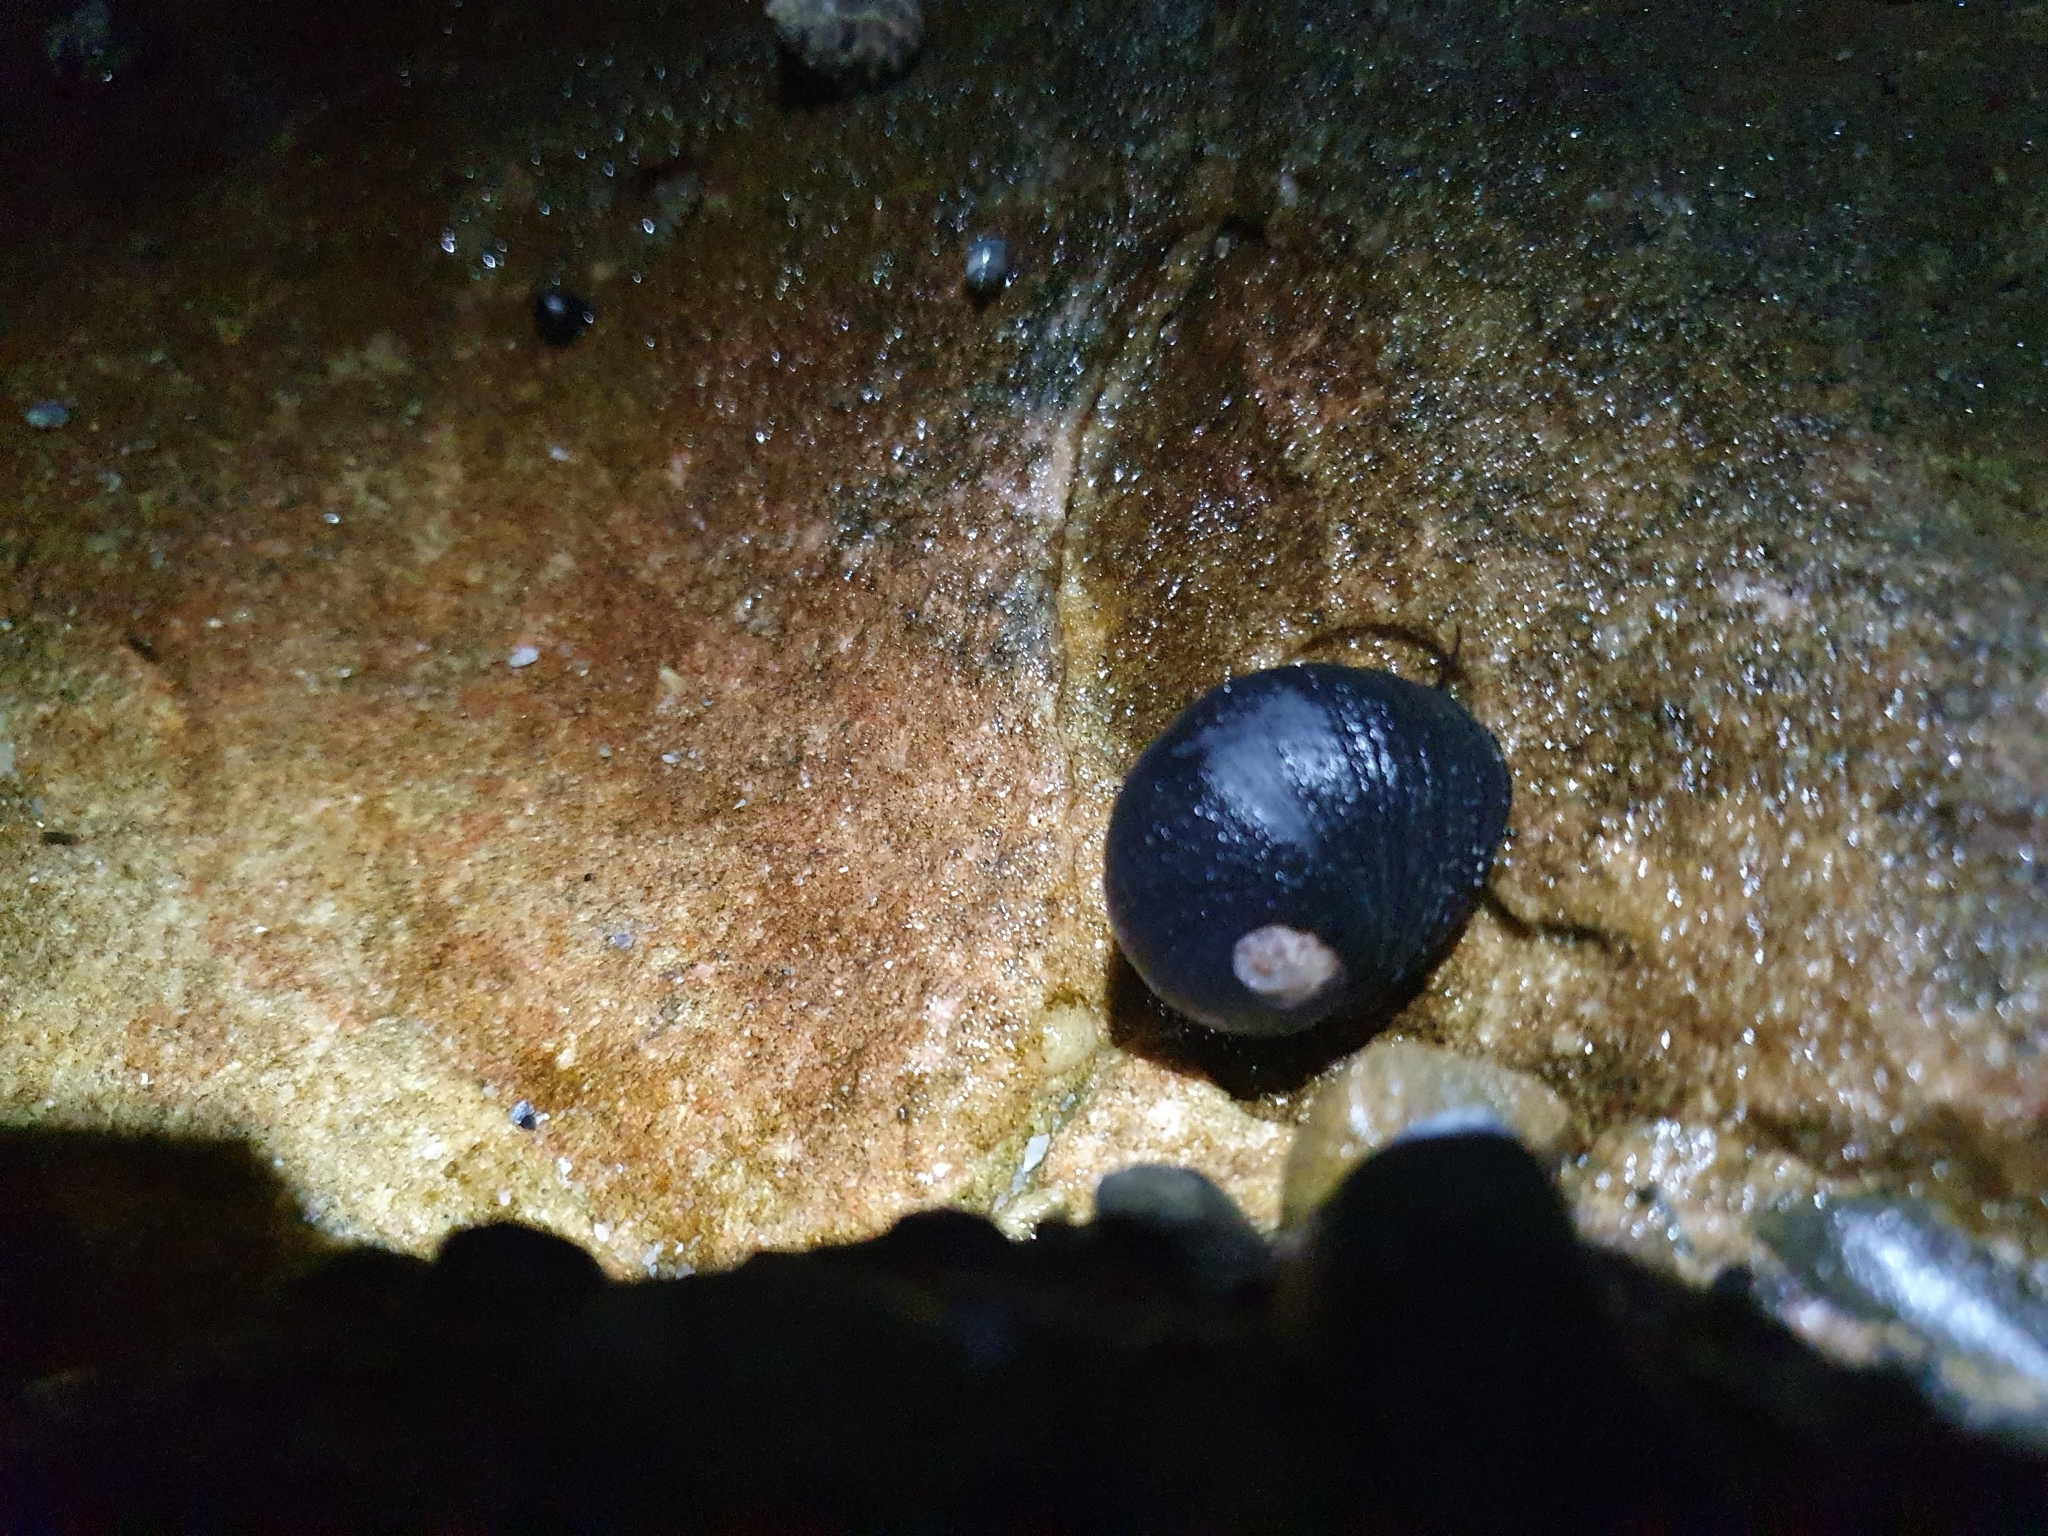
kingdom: Animalia
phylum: Mollusca
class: Gastropoda
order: Cycloneritida
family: Neritidae
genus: Nerita
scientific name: Nerita melanotragus
